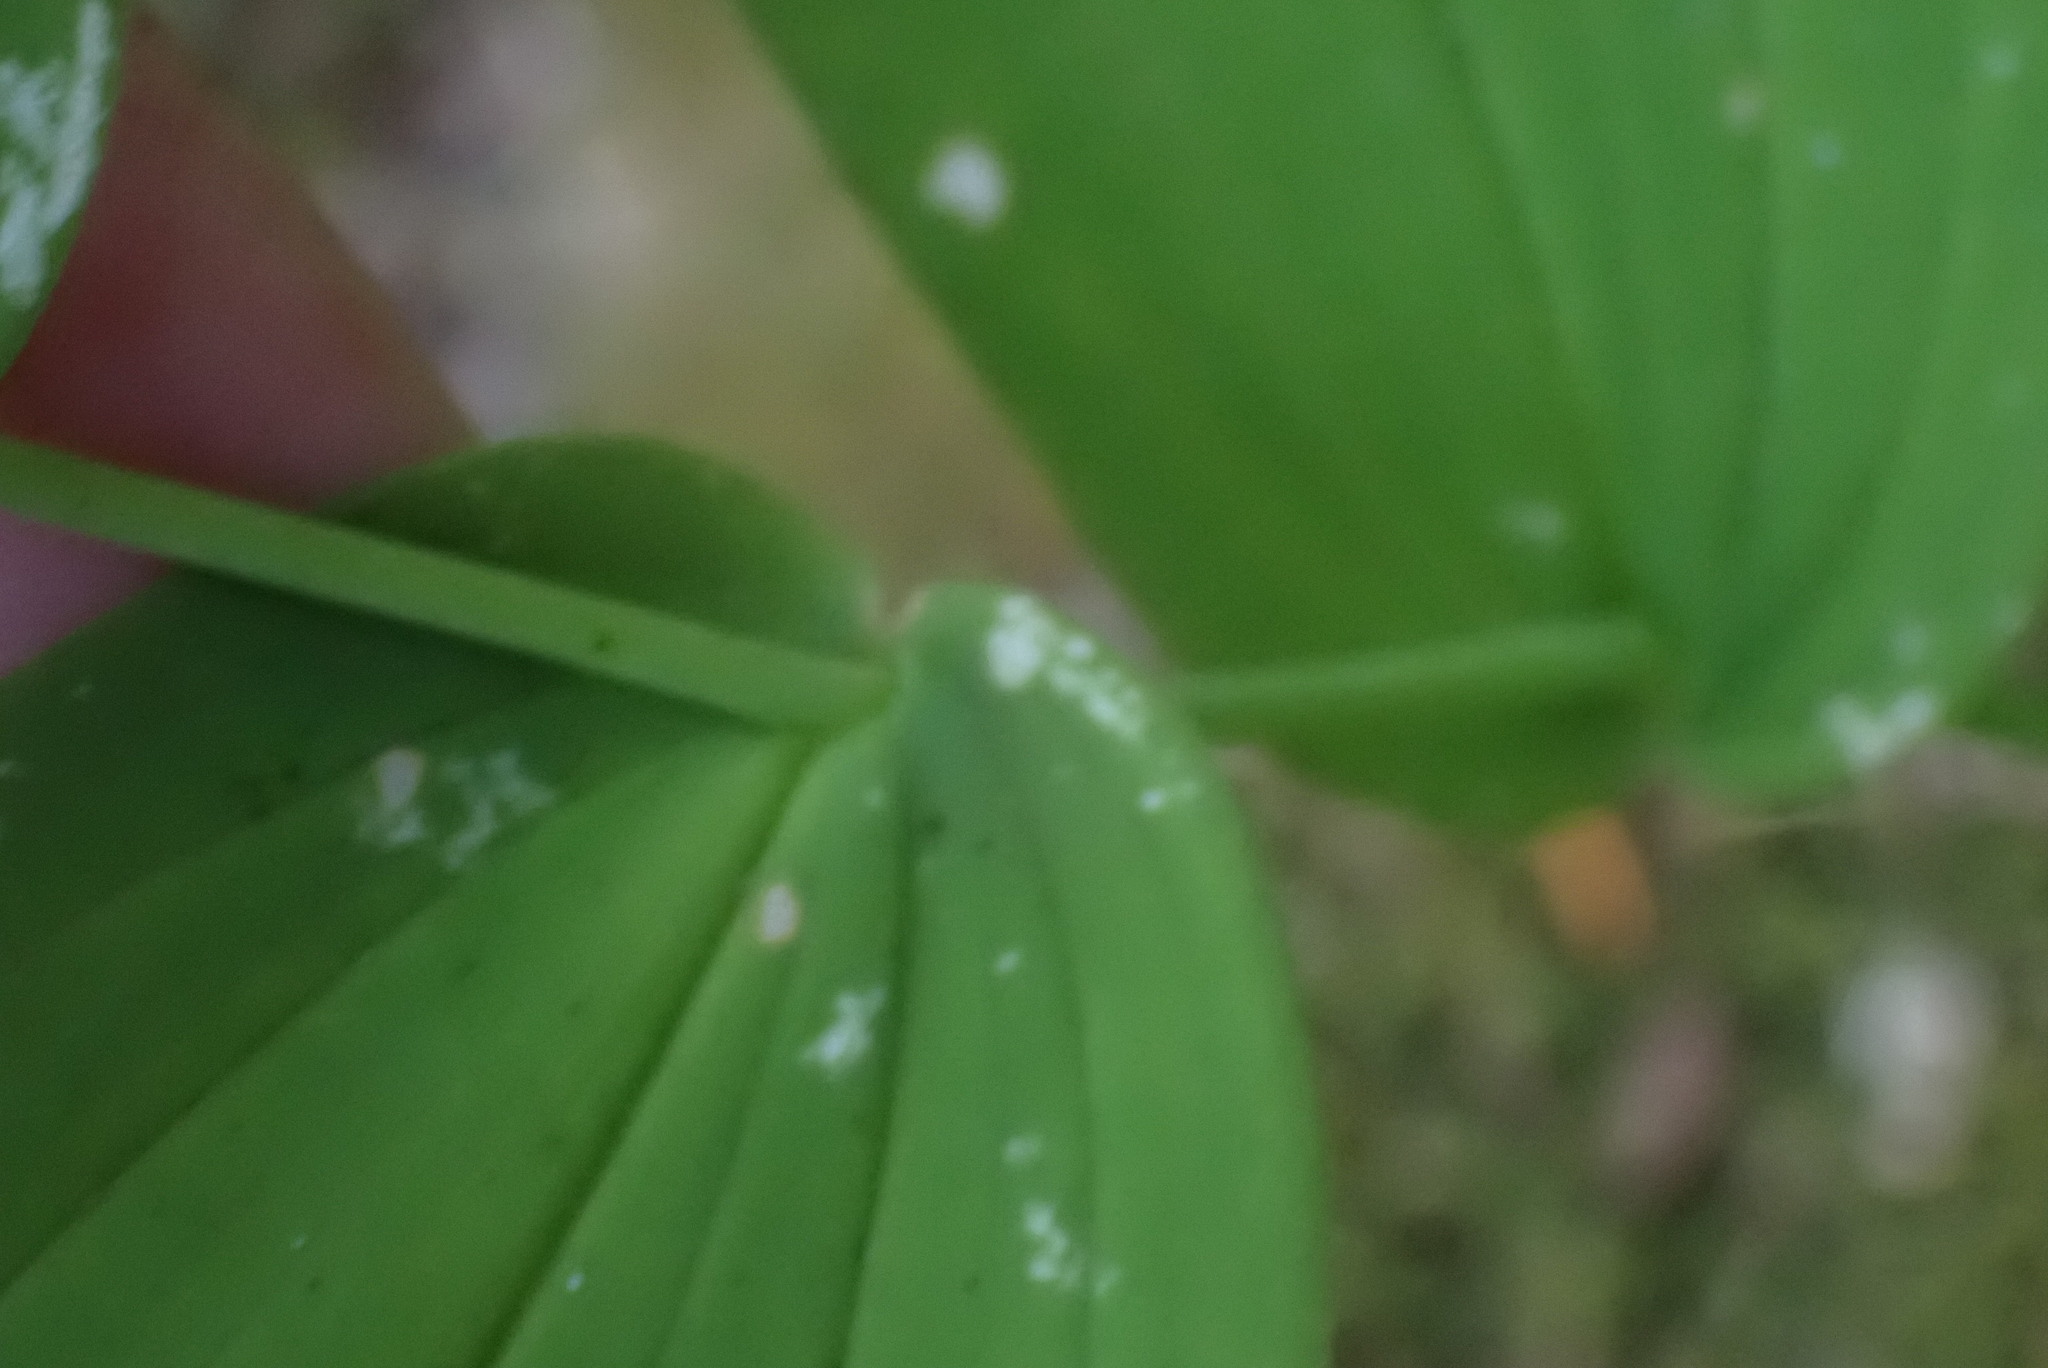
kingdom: Plantae
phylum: Tracheophyta
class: Liliopsida
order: Liliales
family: Liliaceae
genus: Streptopus
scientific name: Streptopus amplexifolius
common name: Clasp twisted stalk
